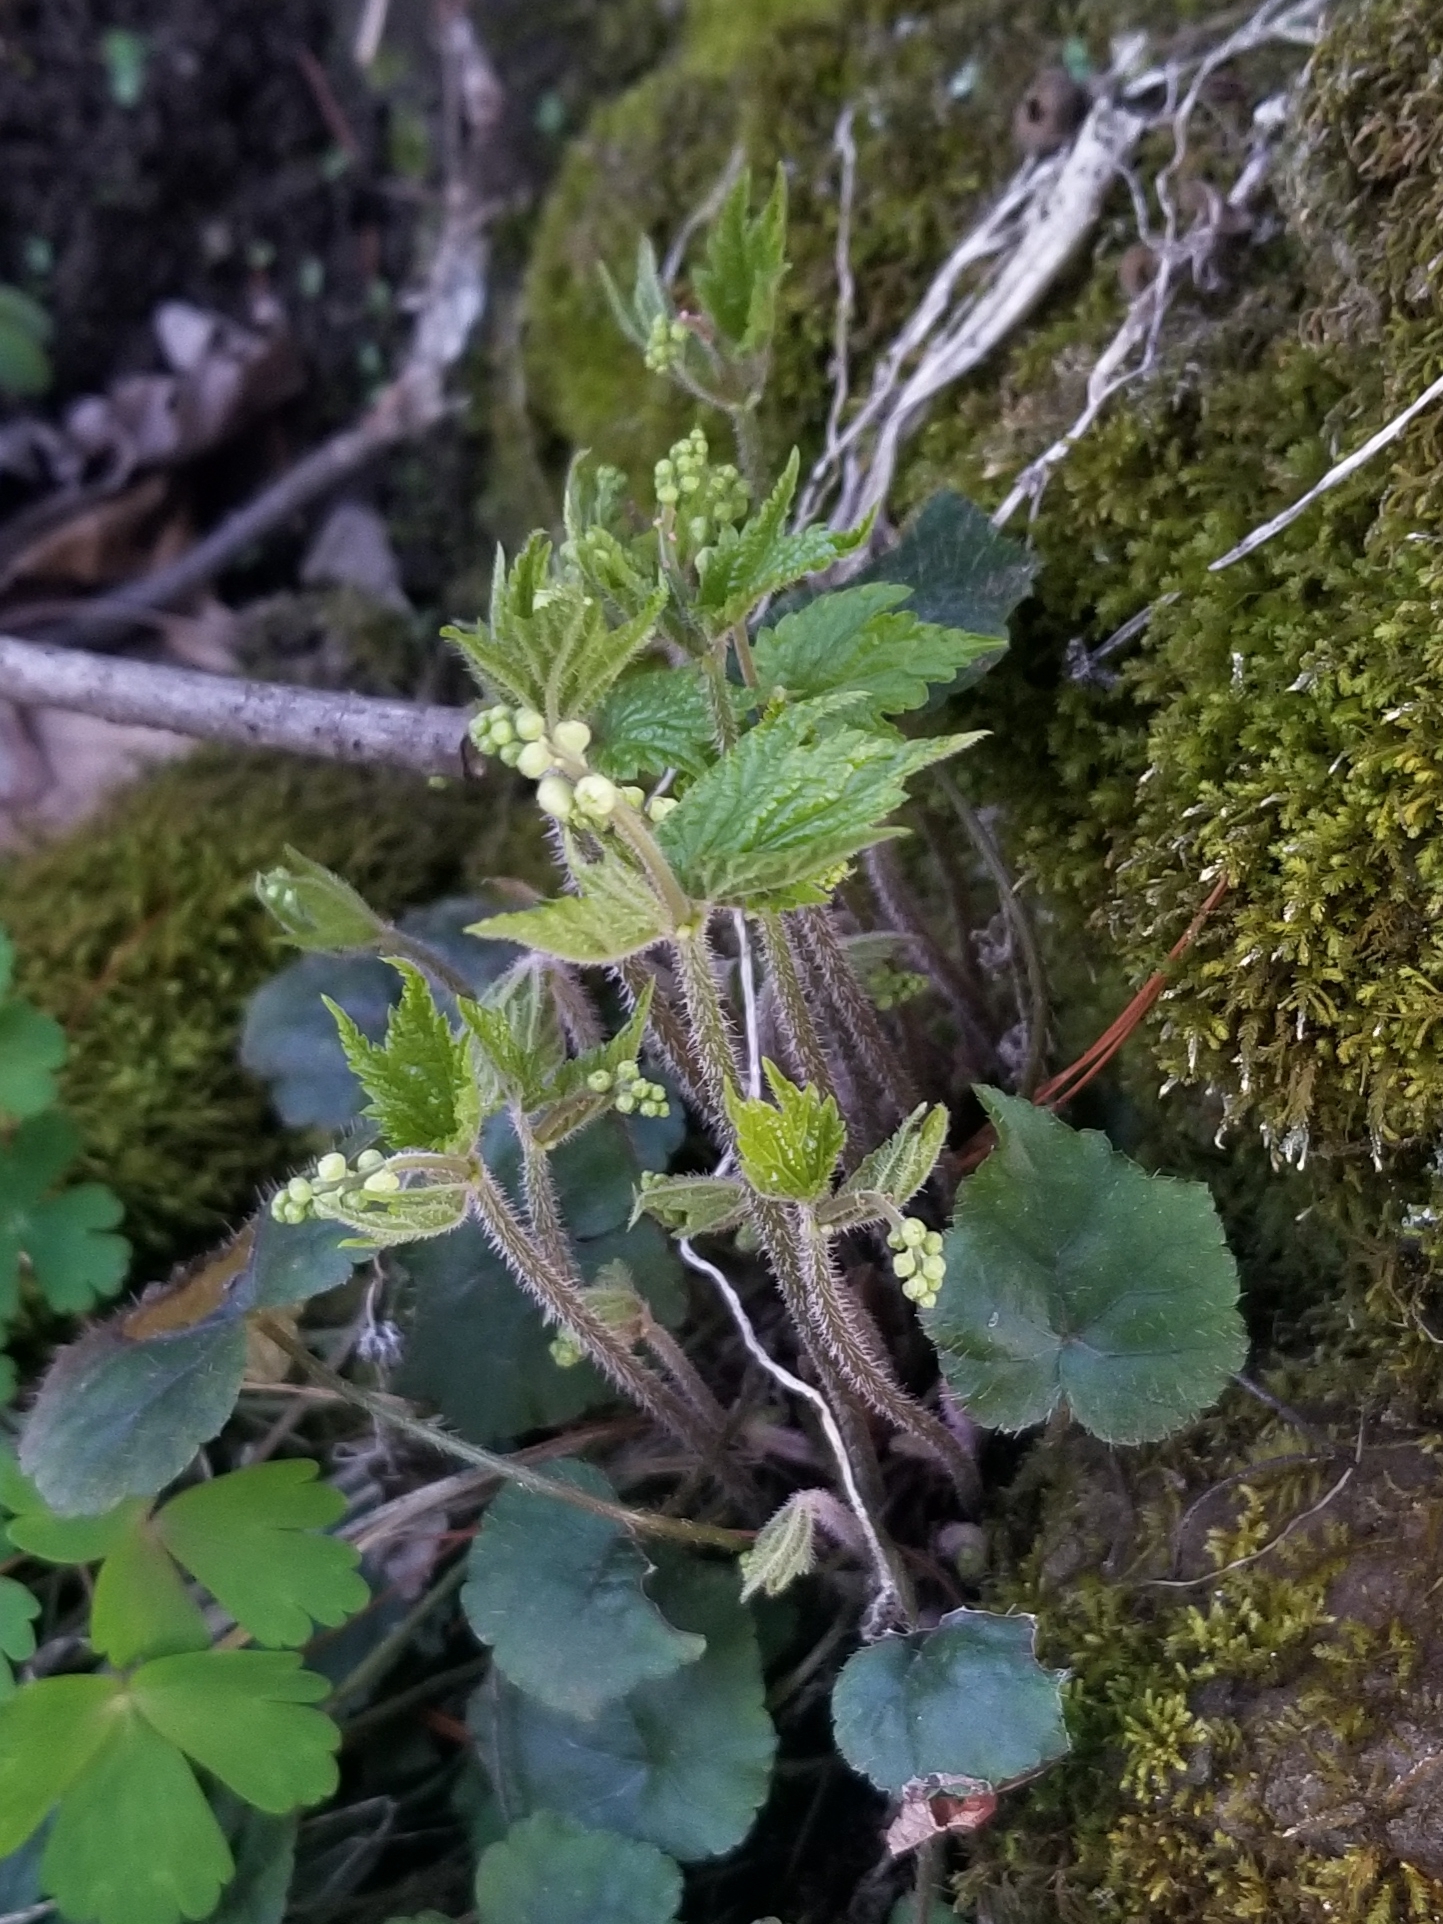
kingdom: Plantae
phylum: Tracheophyta
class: Magnoliopsida
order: Saxifragales
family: Saxifragaceae
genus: Mitella
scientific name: Mitella diphylla
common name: Coolwort
